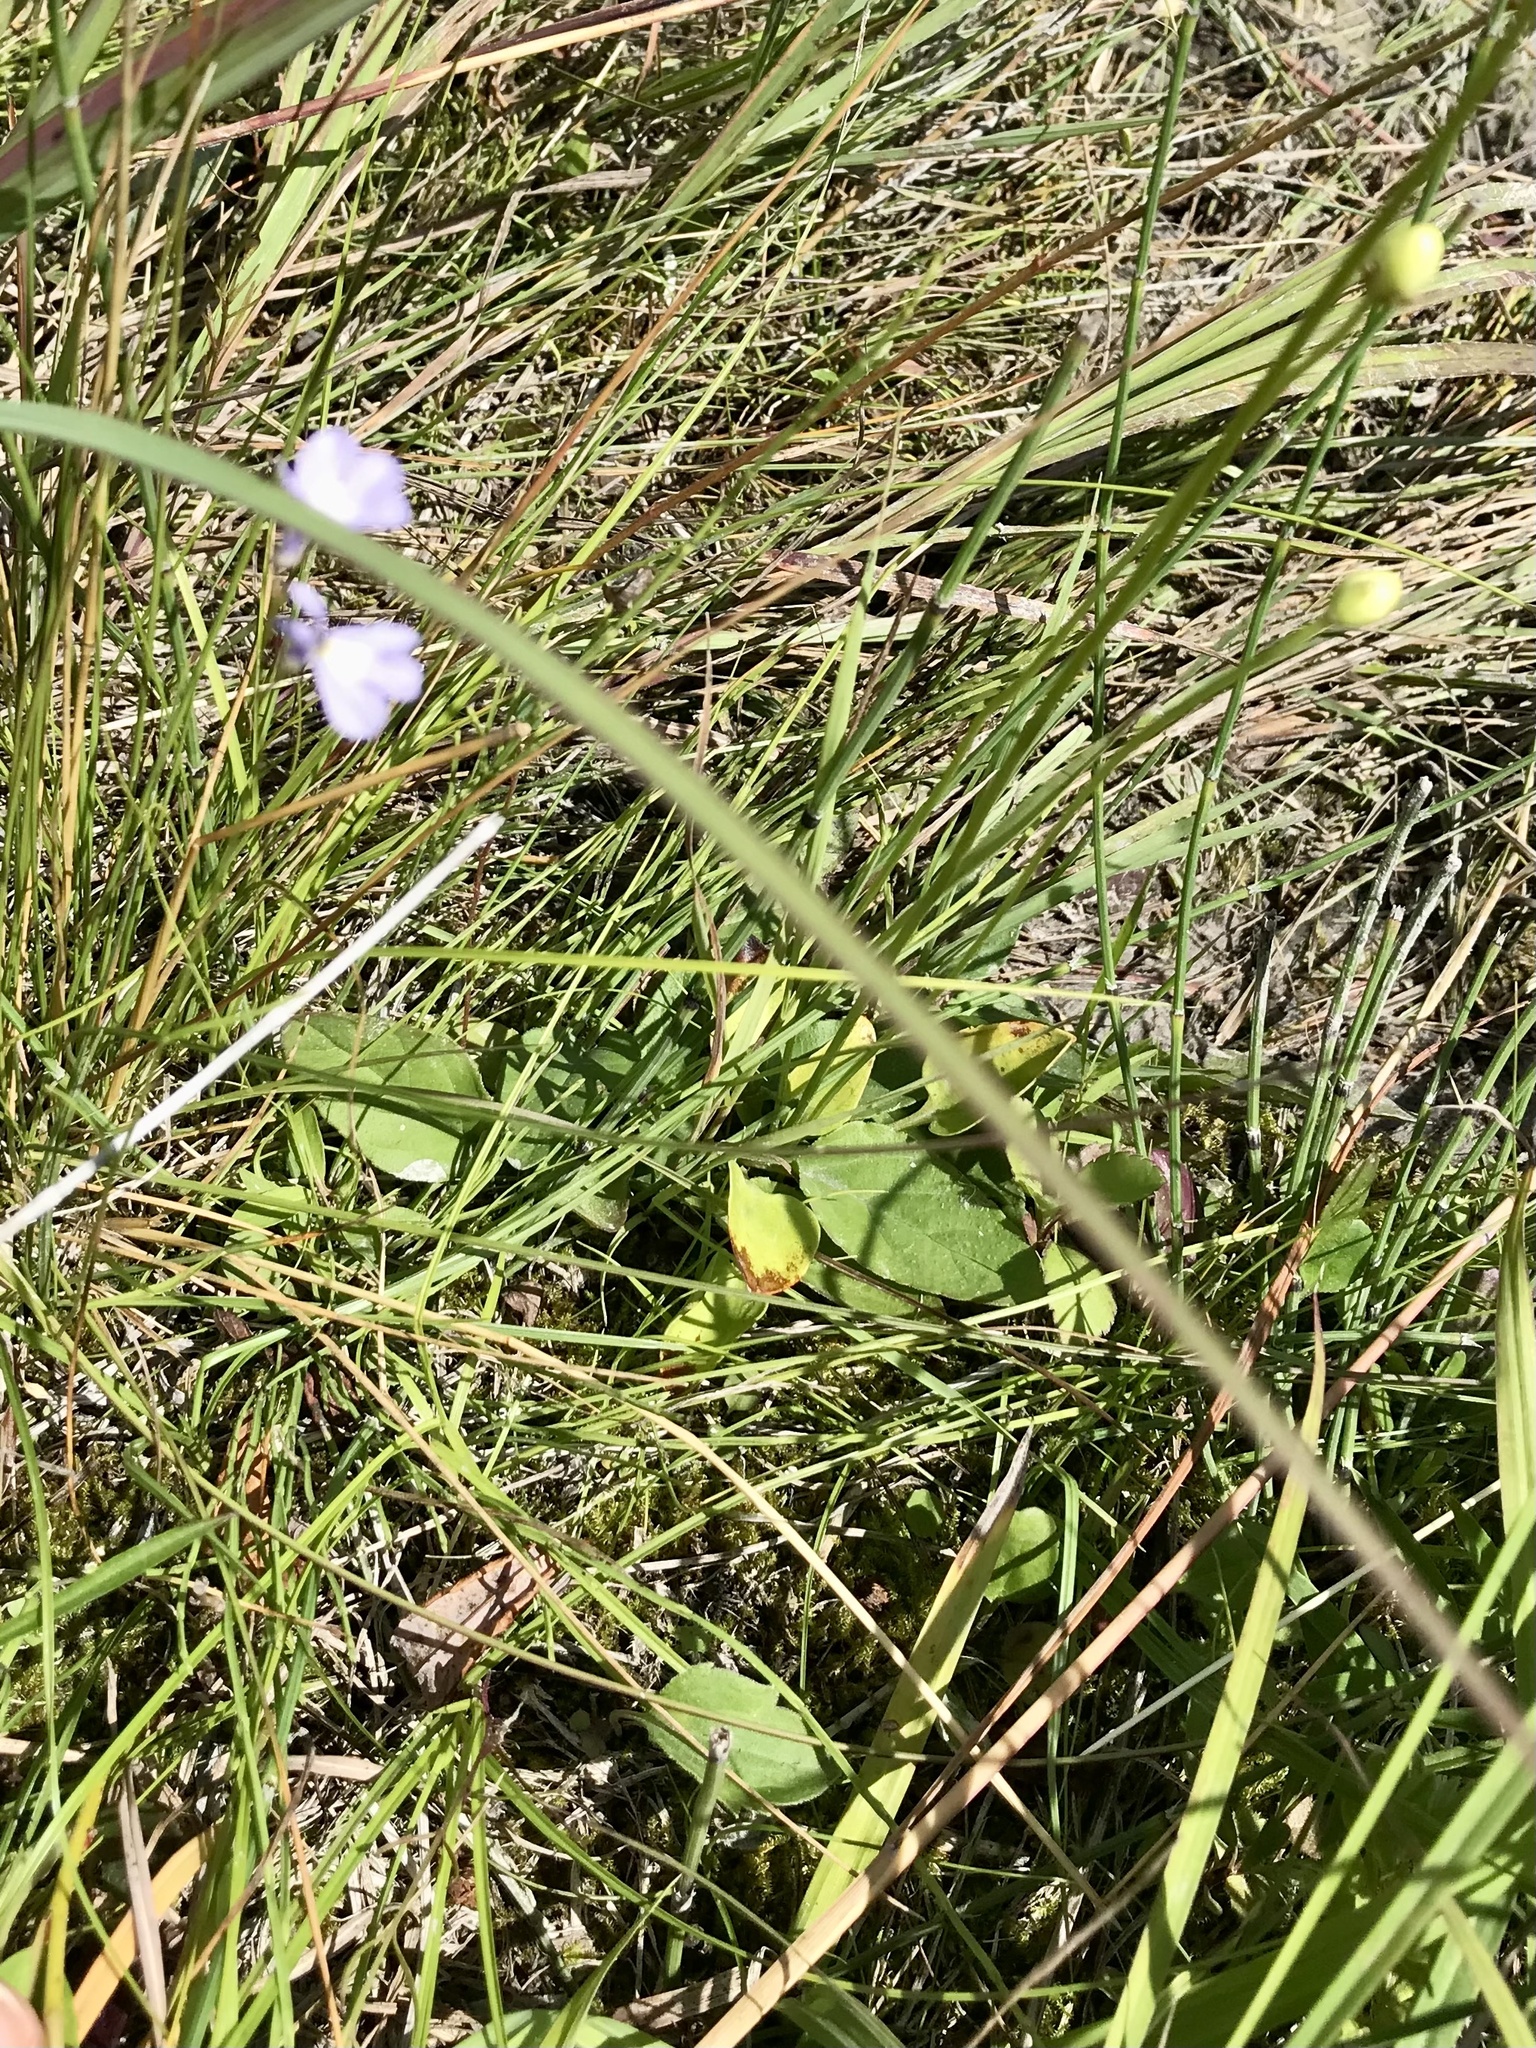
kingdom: Plantae
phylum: Tracheophyta
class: Magnoliopsida
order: Celastrales
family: Parnassiaceae
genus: Parnassia
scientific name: Parnassia glauca
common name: American grass-of-parnassus
